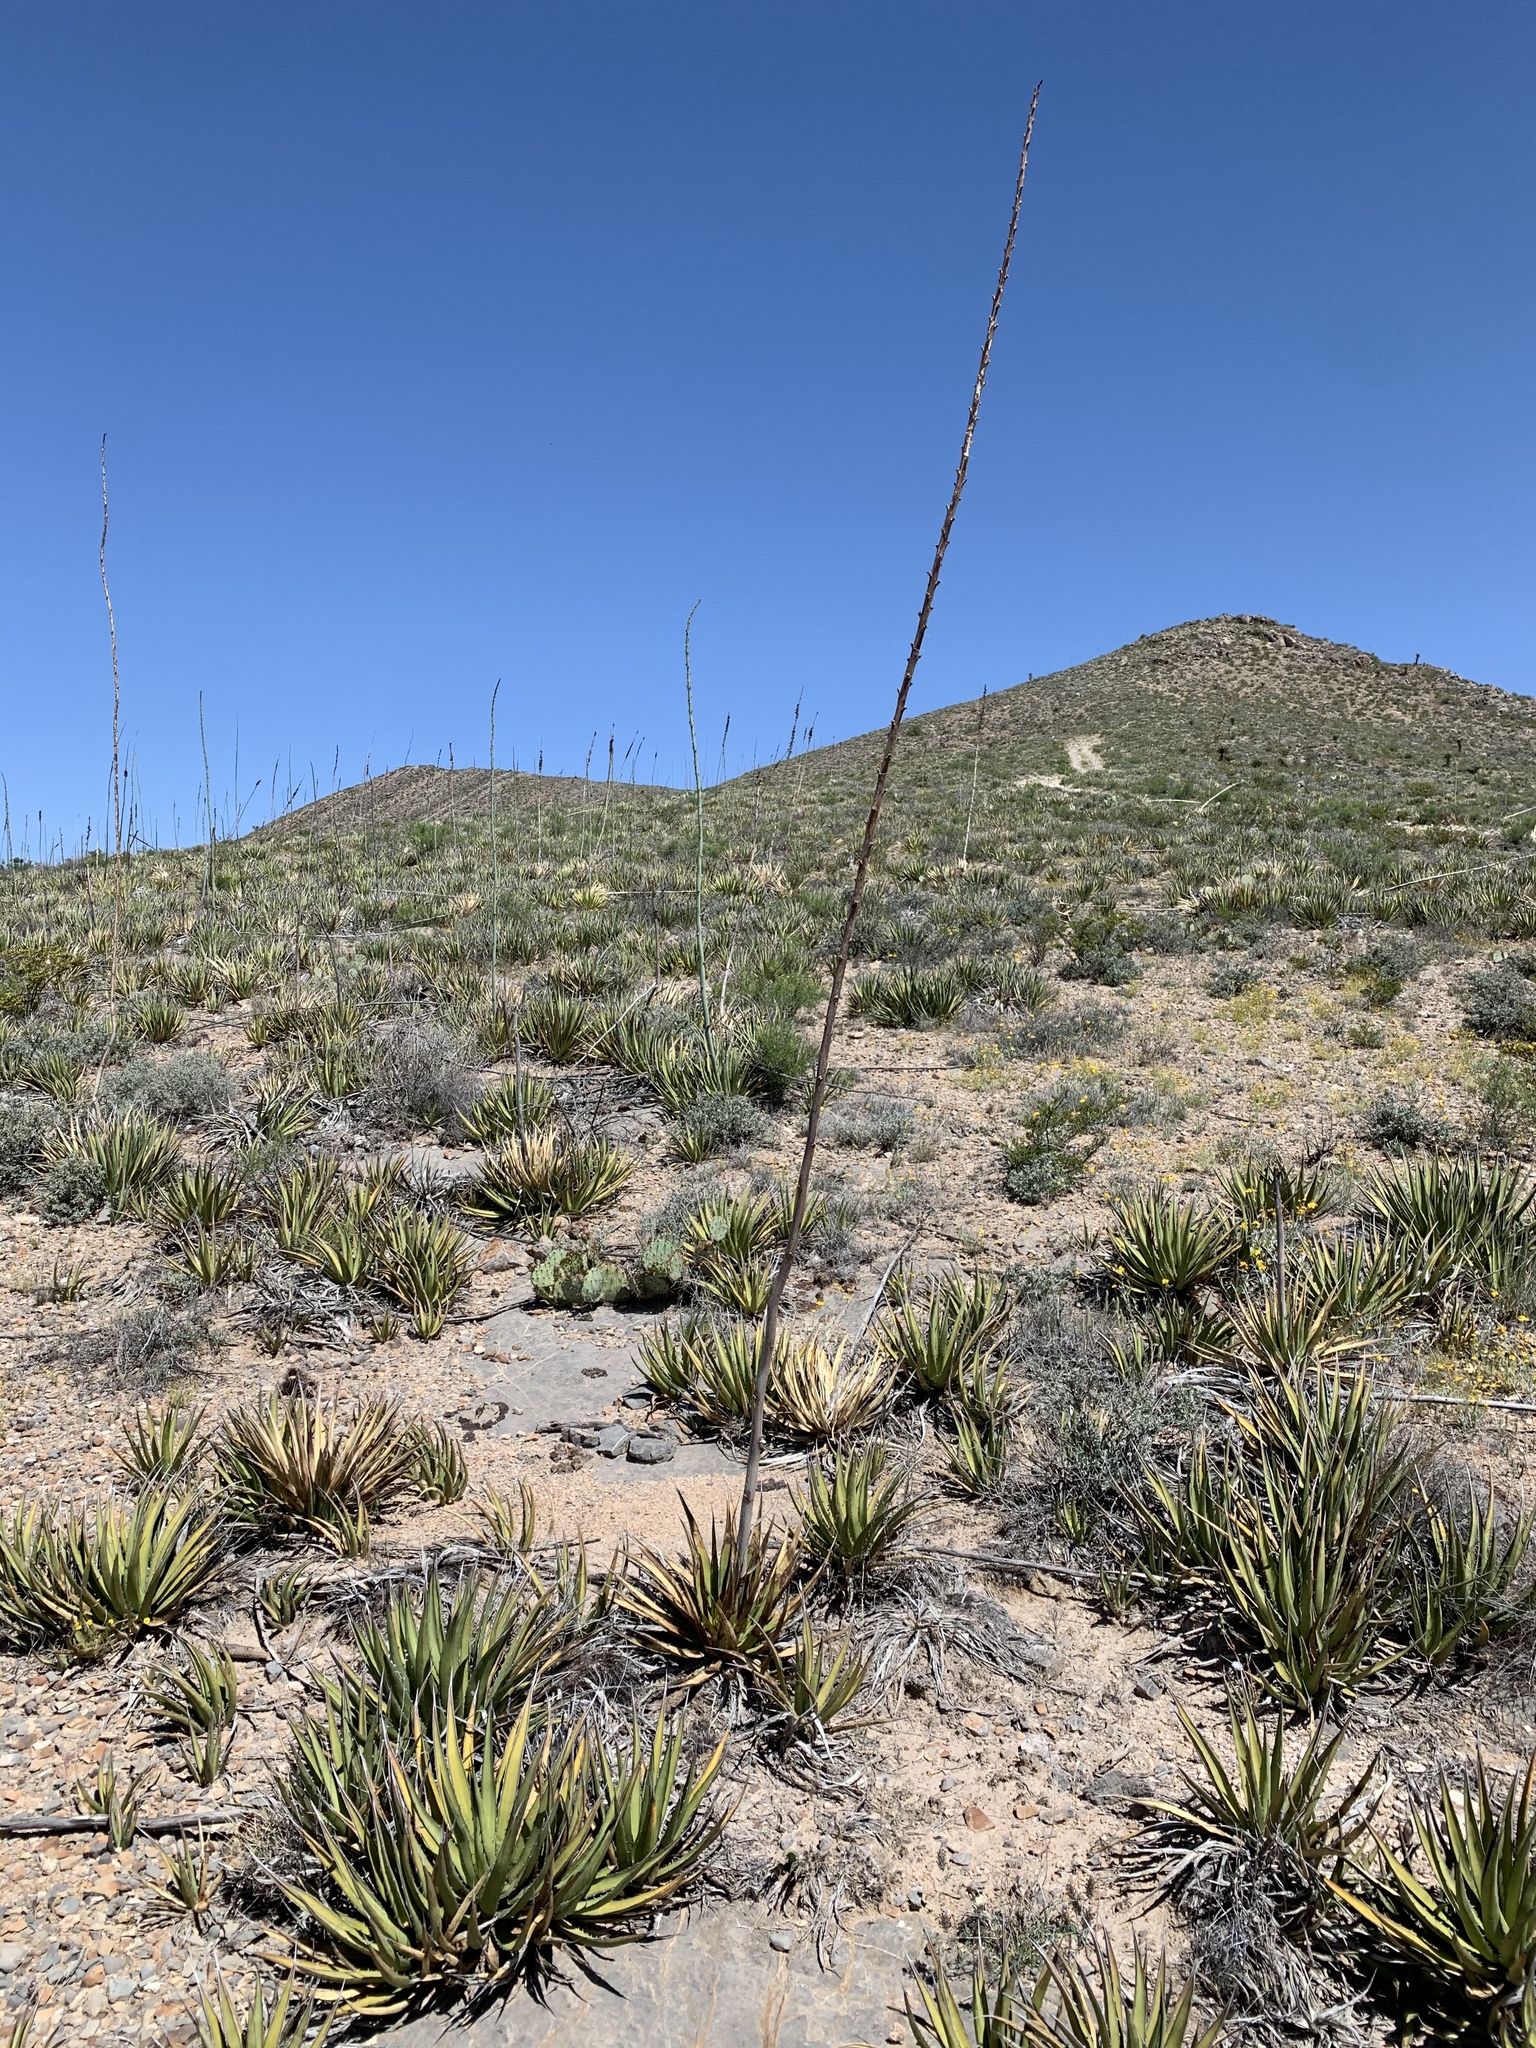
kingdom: Plantae
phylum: Tracheophyta
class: Liliopsida
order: Asparagales
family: Asparagaceae
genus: Agave
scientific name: Agave lechuguilla
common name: Lecheguilla agave
